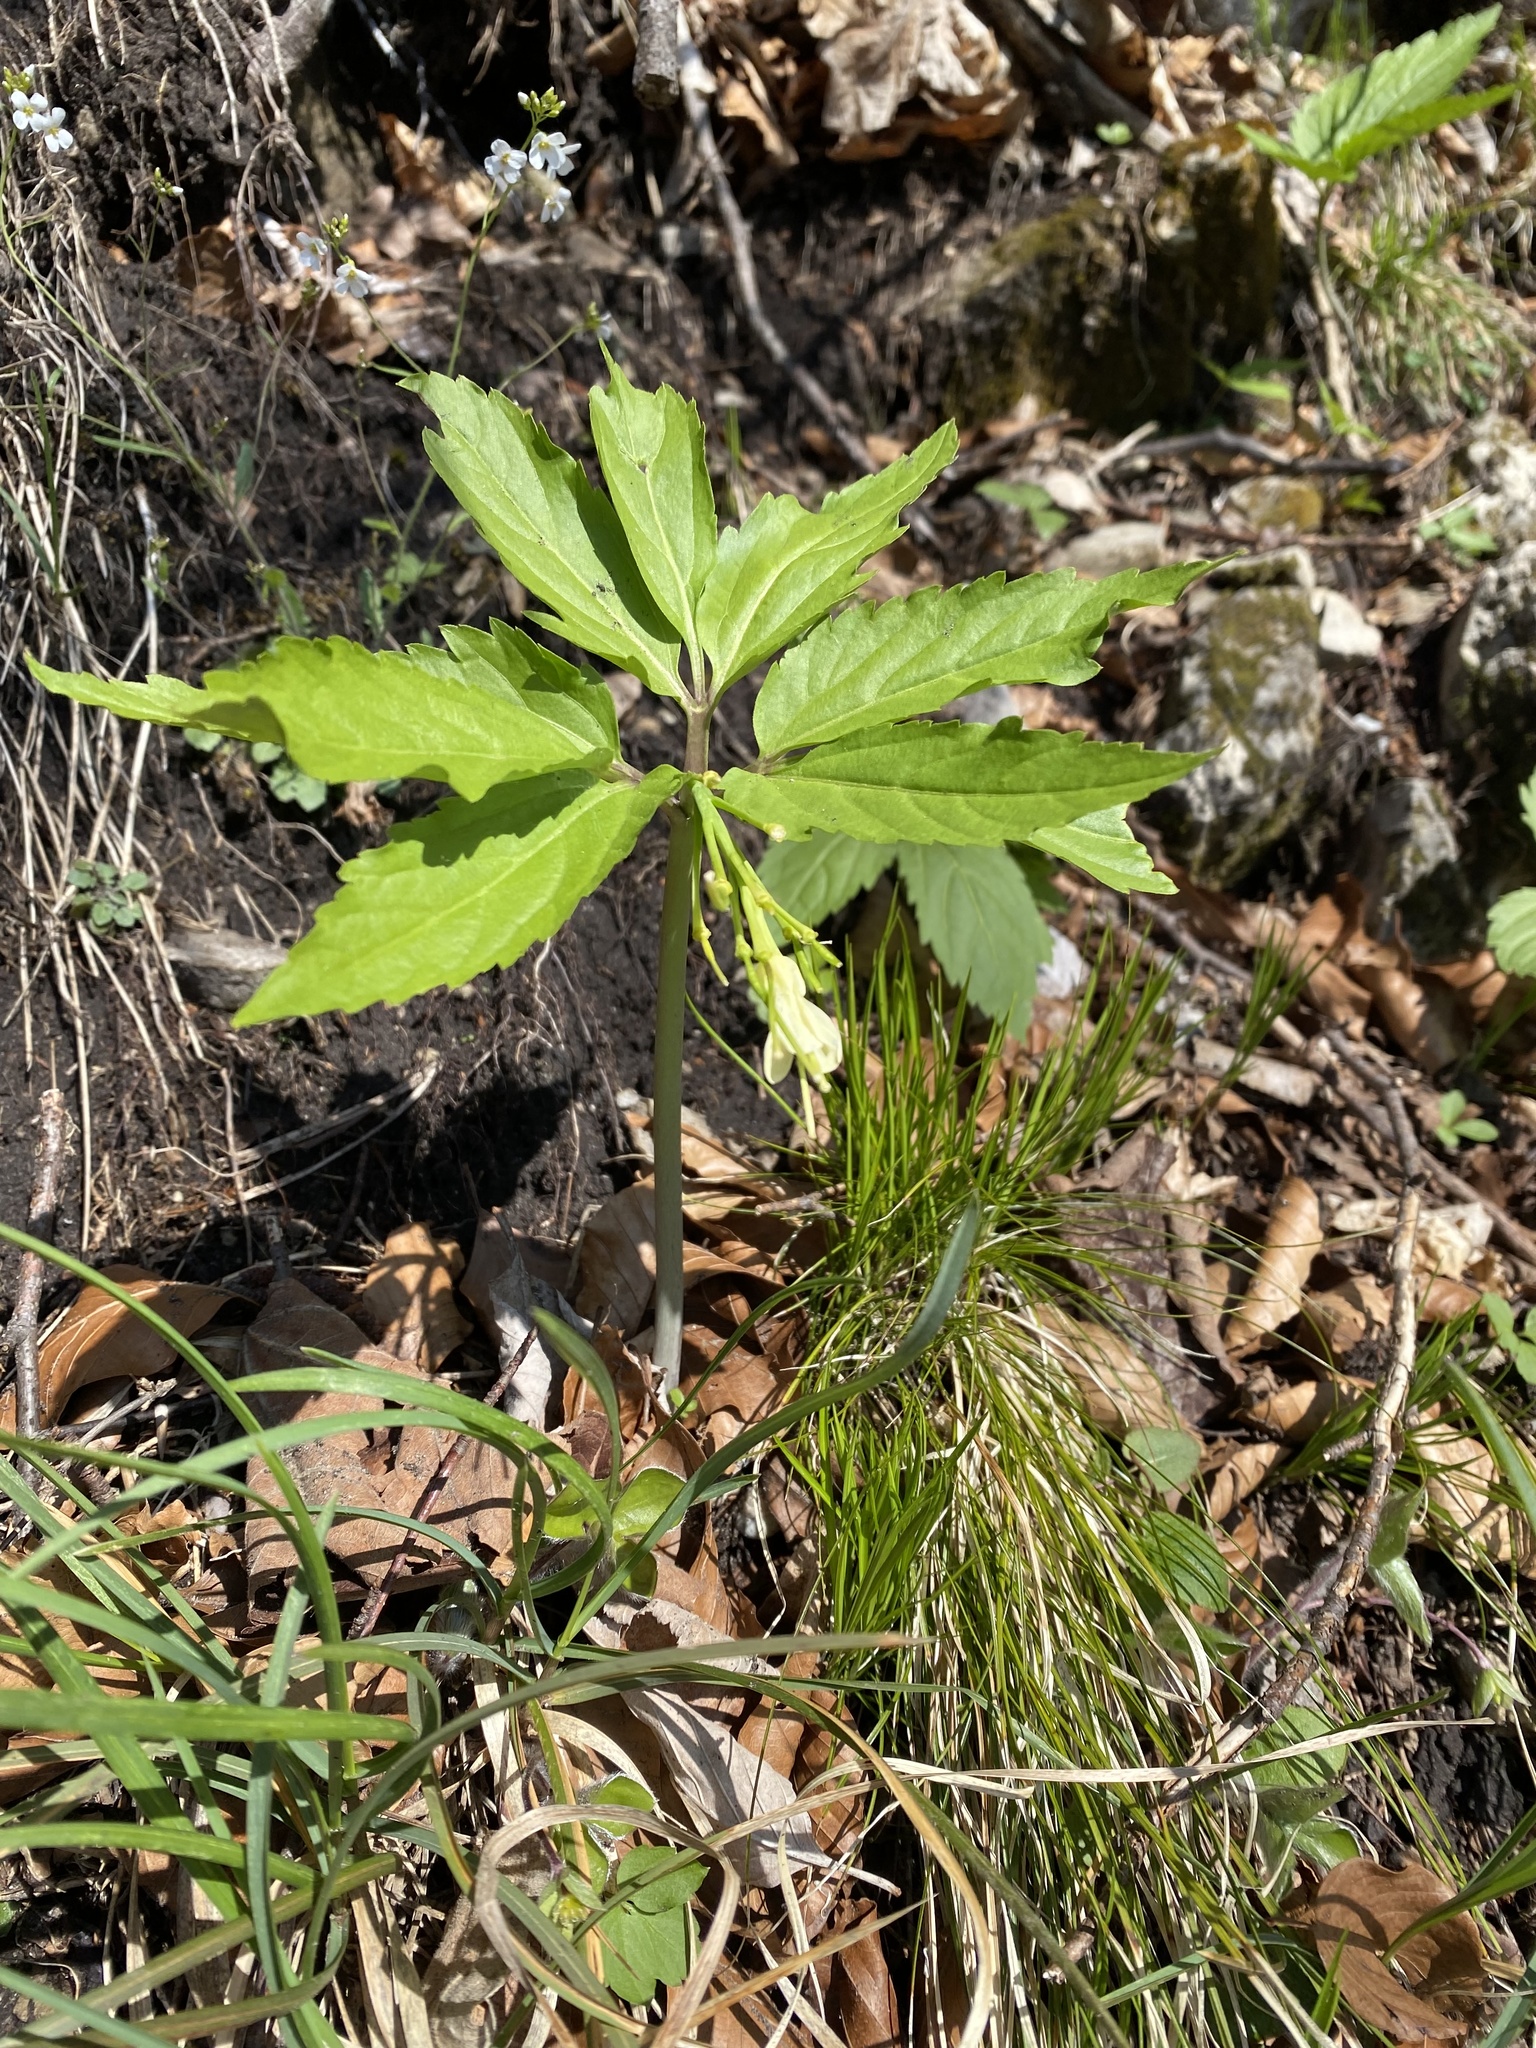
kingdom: Plantae
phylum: Tracheophyta
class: Magnoliopsida
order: Brassicales
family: Brassicaceae
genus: Cardamine
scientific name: Cardamine enneaphyllos
